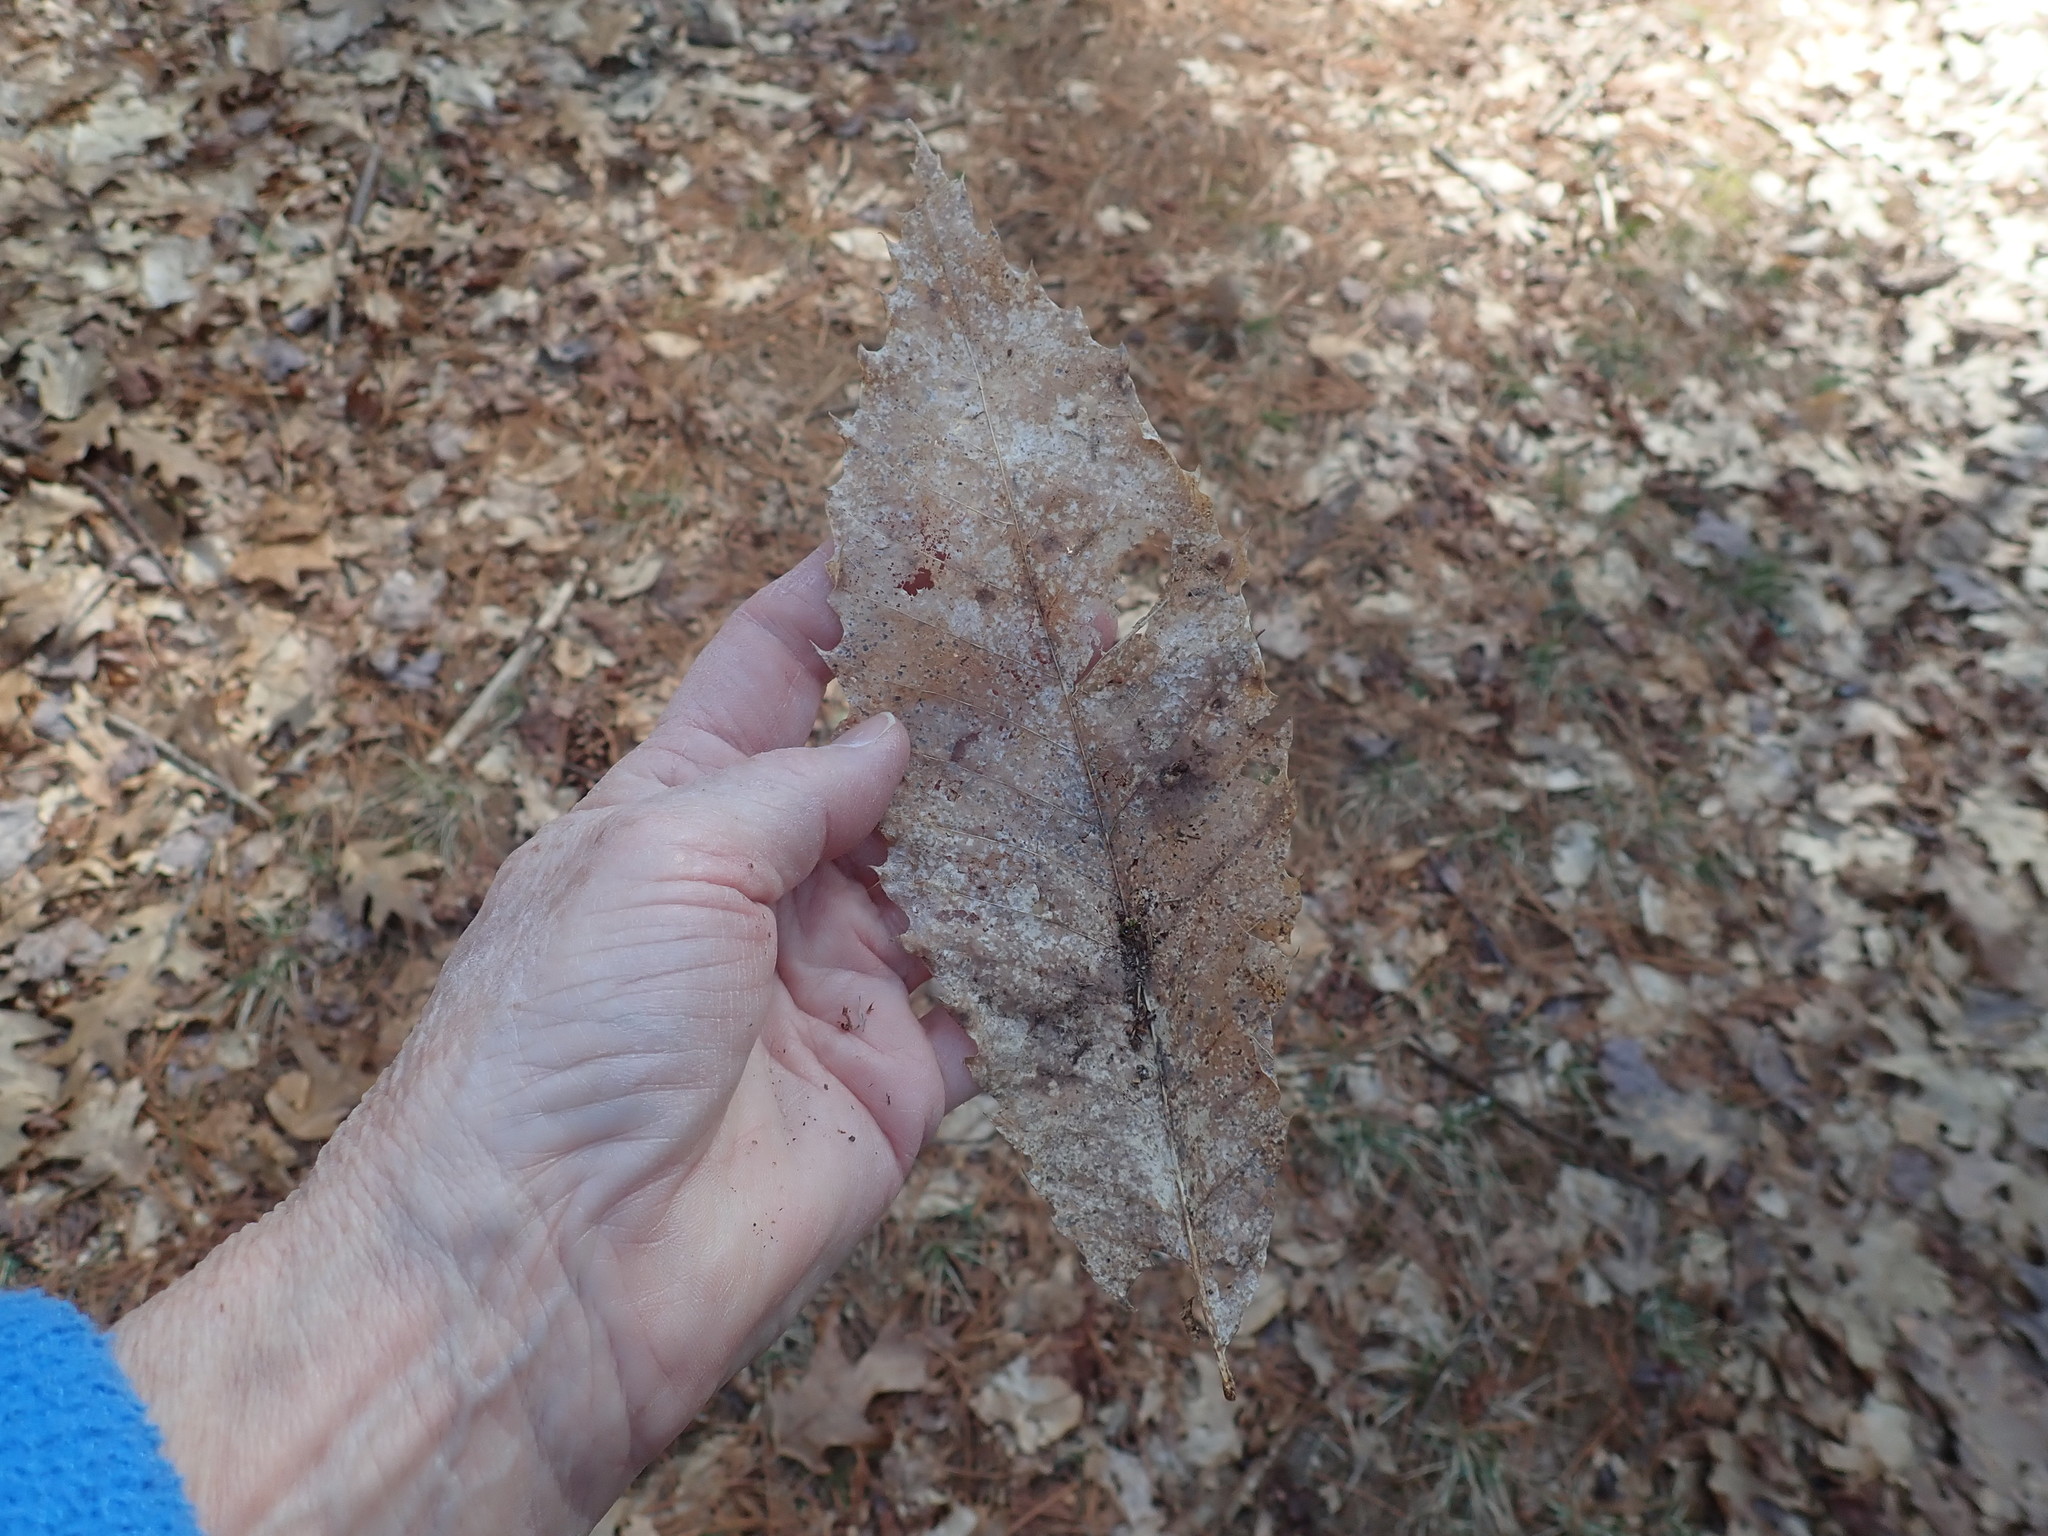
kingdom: Plantae
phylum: Tracheophyta
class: Magnoliopsida
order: Fagales
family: Fagaceae
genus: Castanea
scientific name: Castanea dentata
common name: American chestnut
